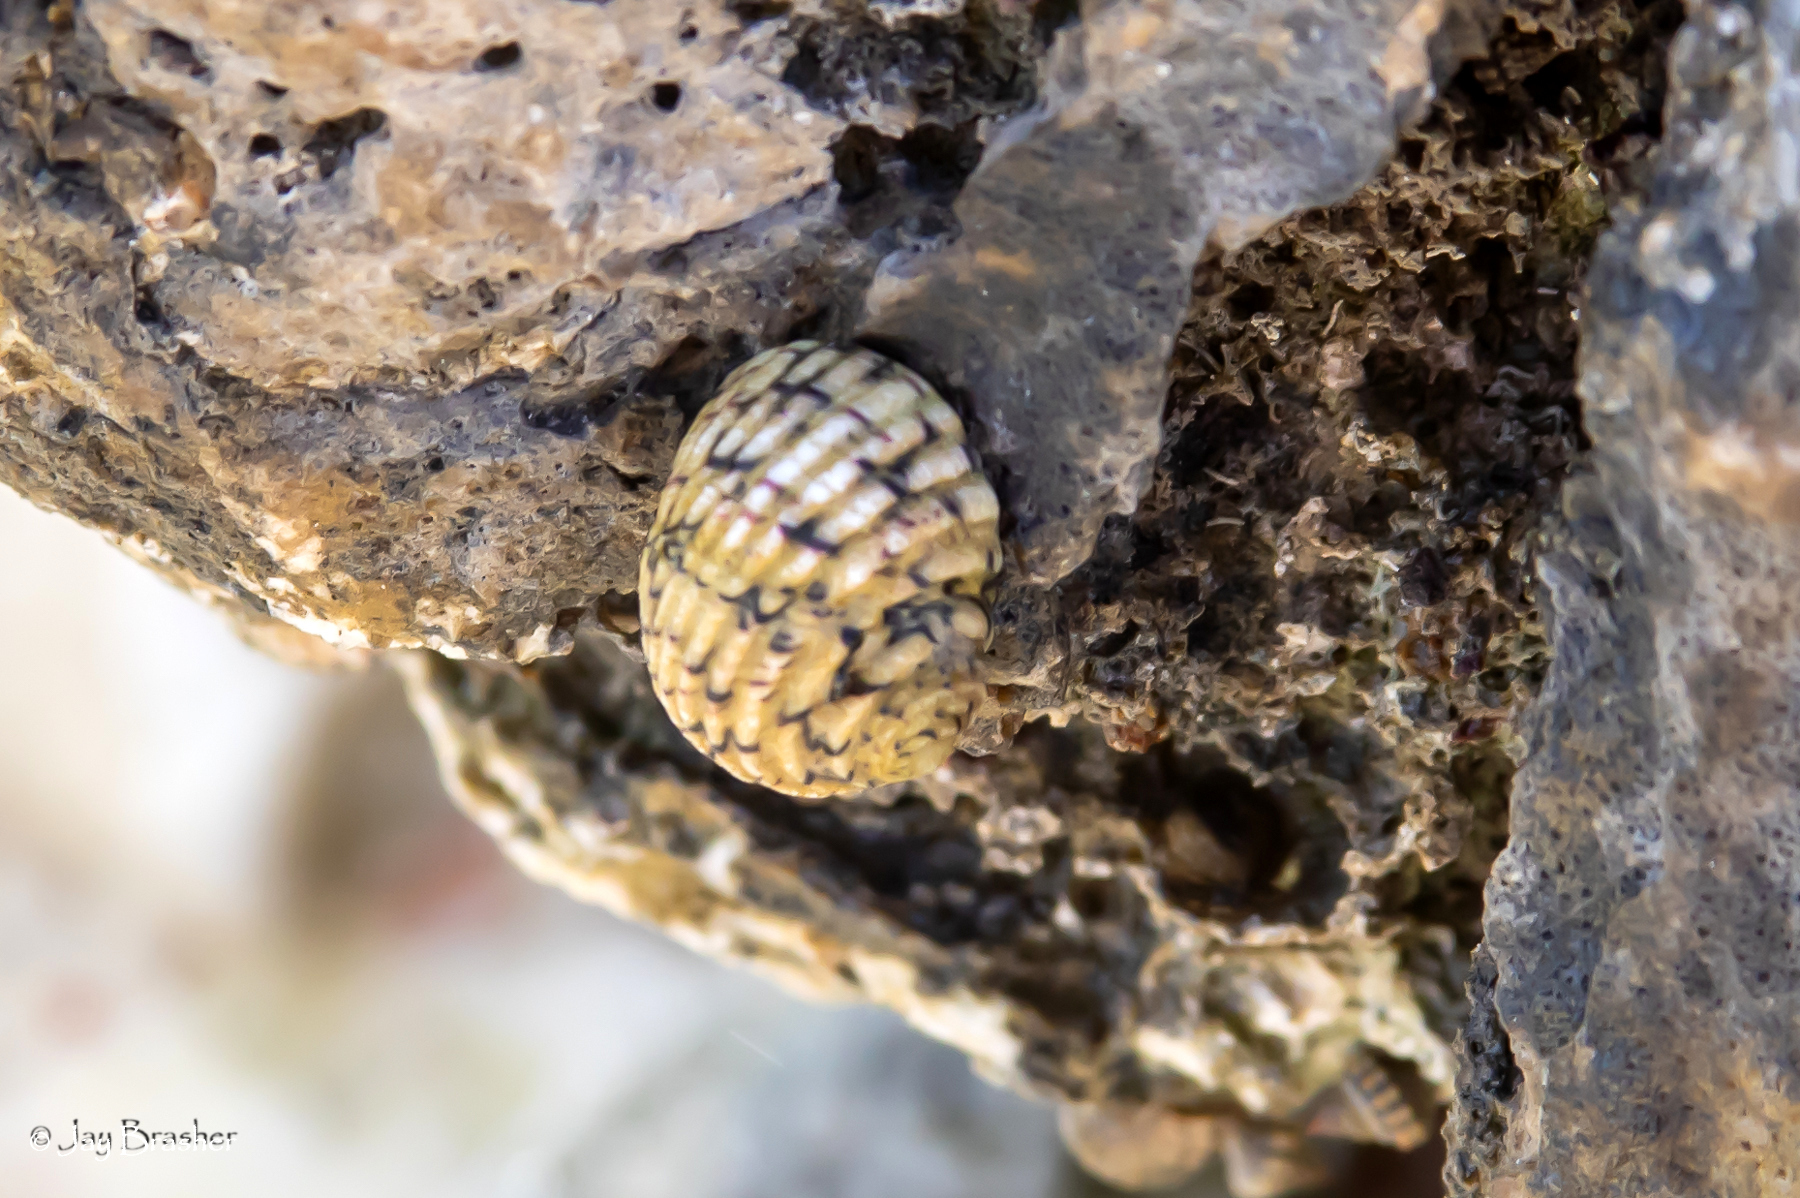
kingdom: Animalia
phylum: Mollusca
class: Gastropoda
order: Cycloneritida
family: Neritidae
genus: Nerita
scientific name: Nerita versicolor
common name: Four-tooth nerite
